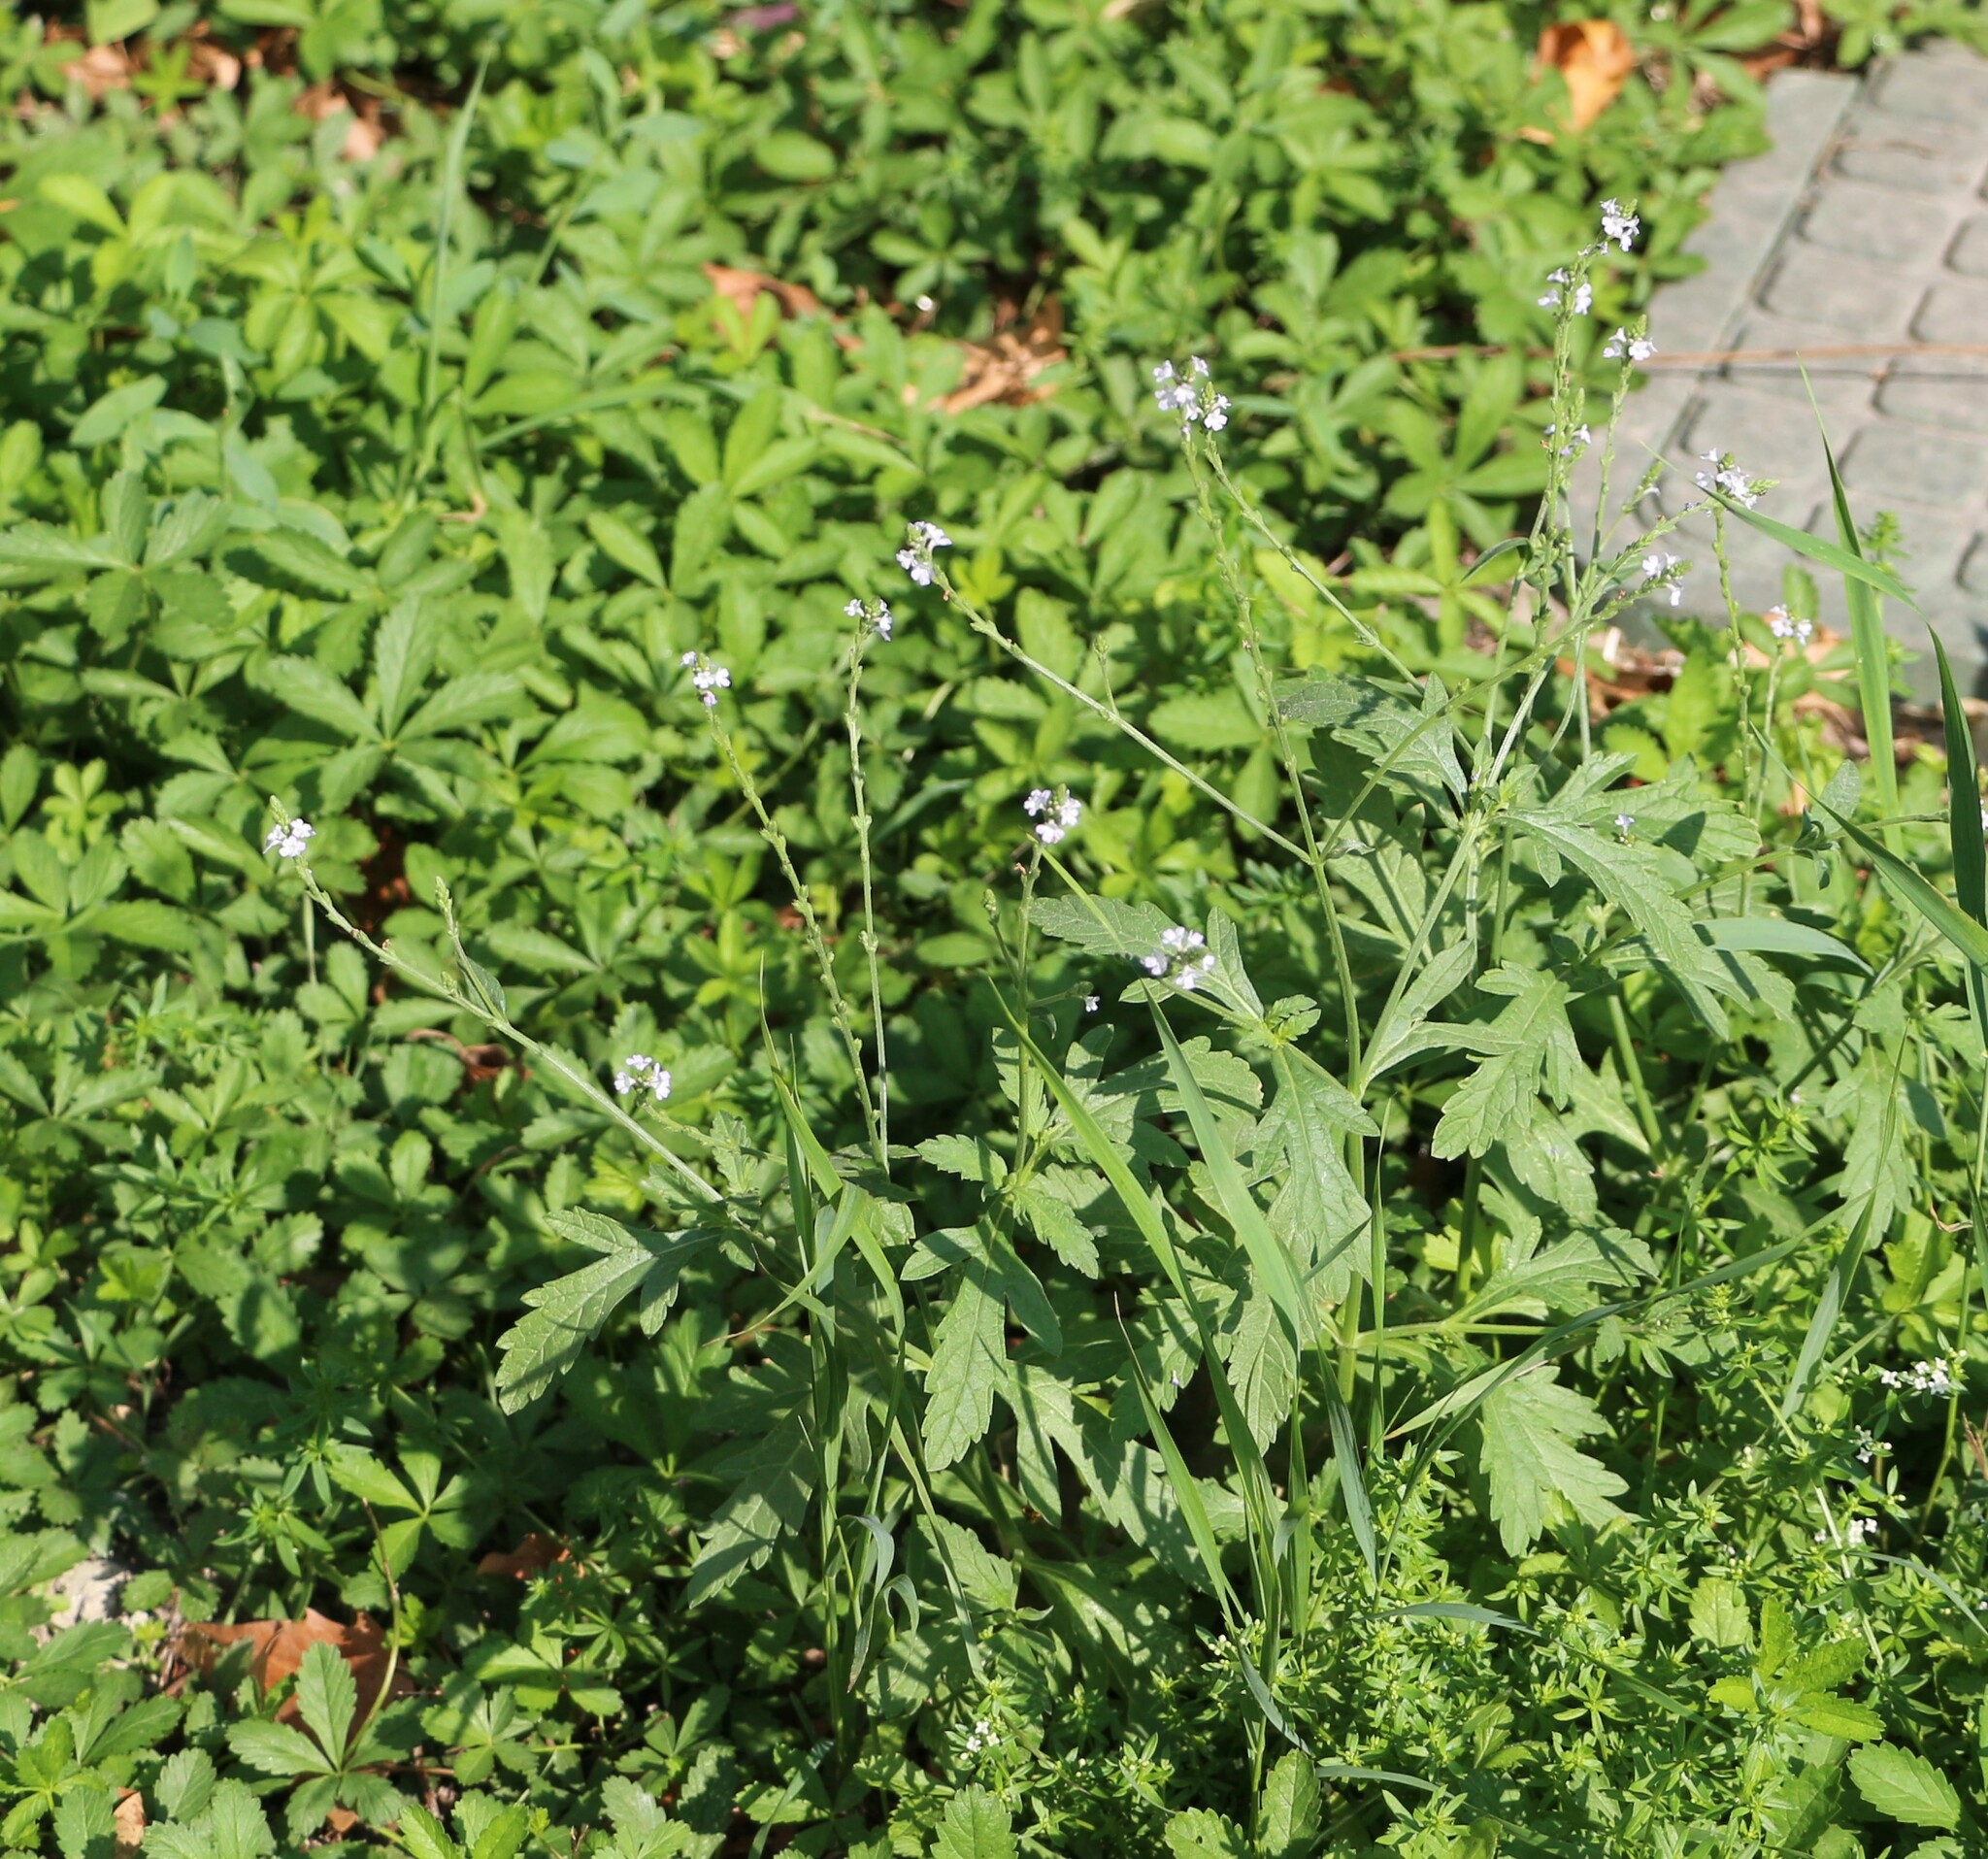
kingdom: Plantae
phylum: Tracheophyta
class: Magnoliopsida
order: Lamiales
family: Verbenaceae
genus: Verbena
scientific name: Verbena officinalis
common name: Vervain
